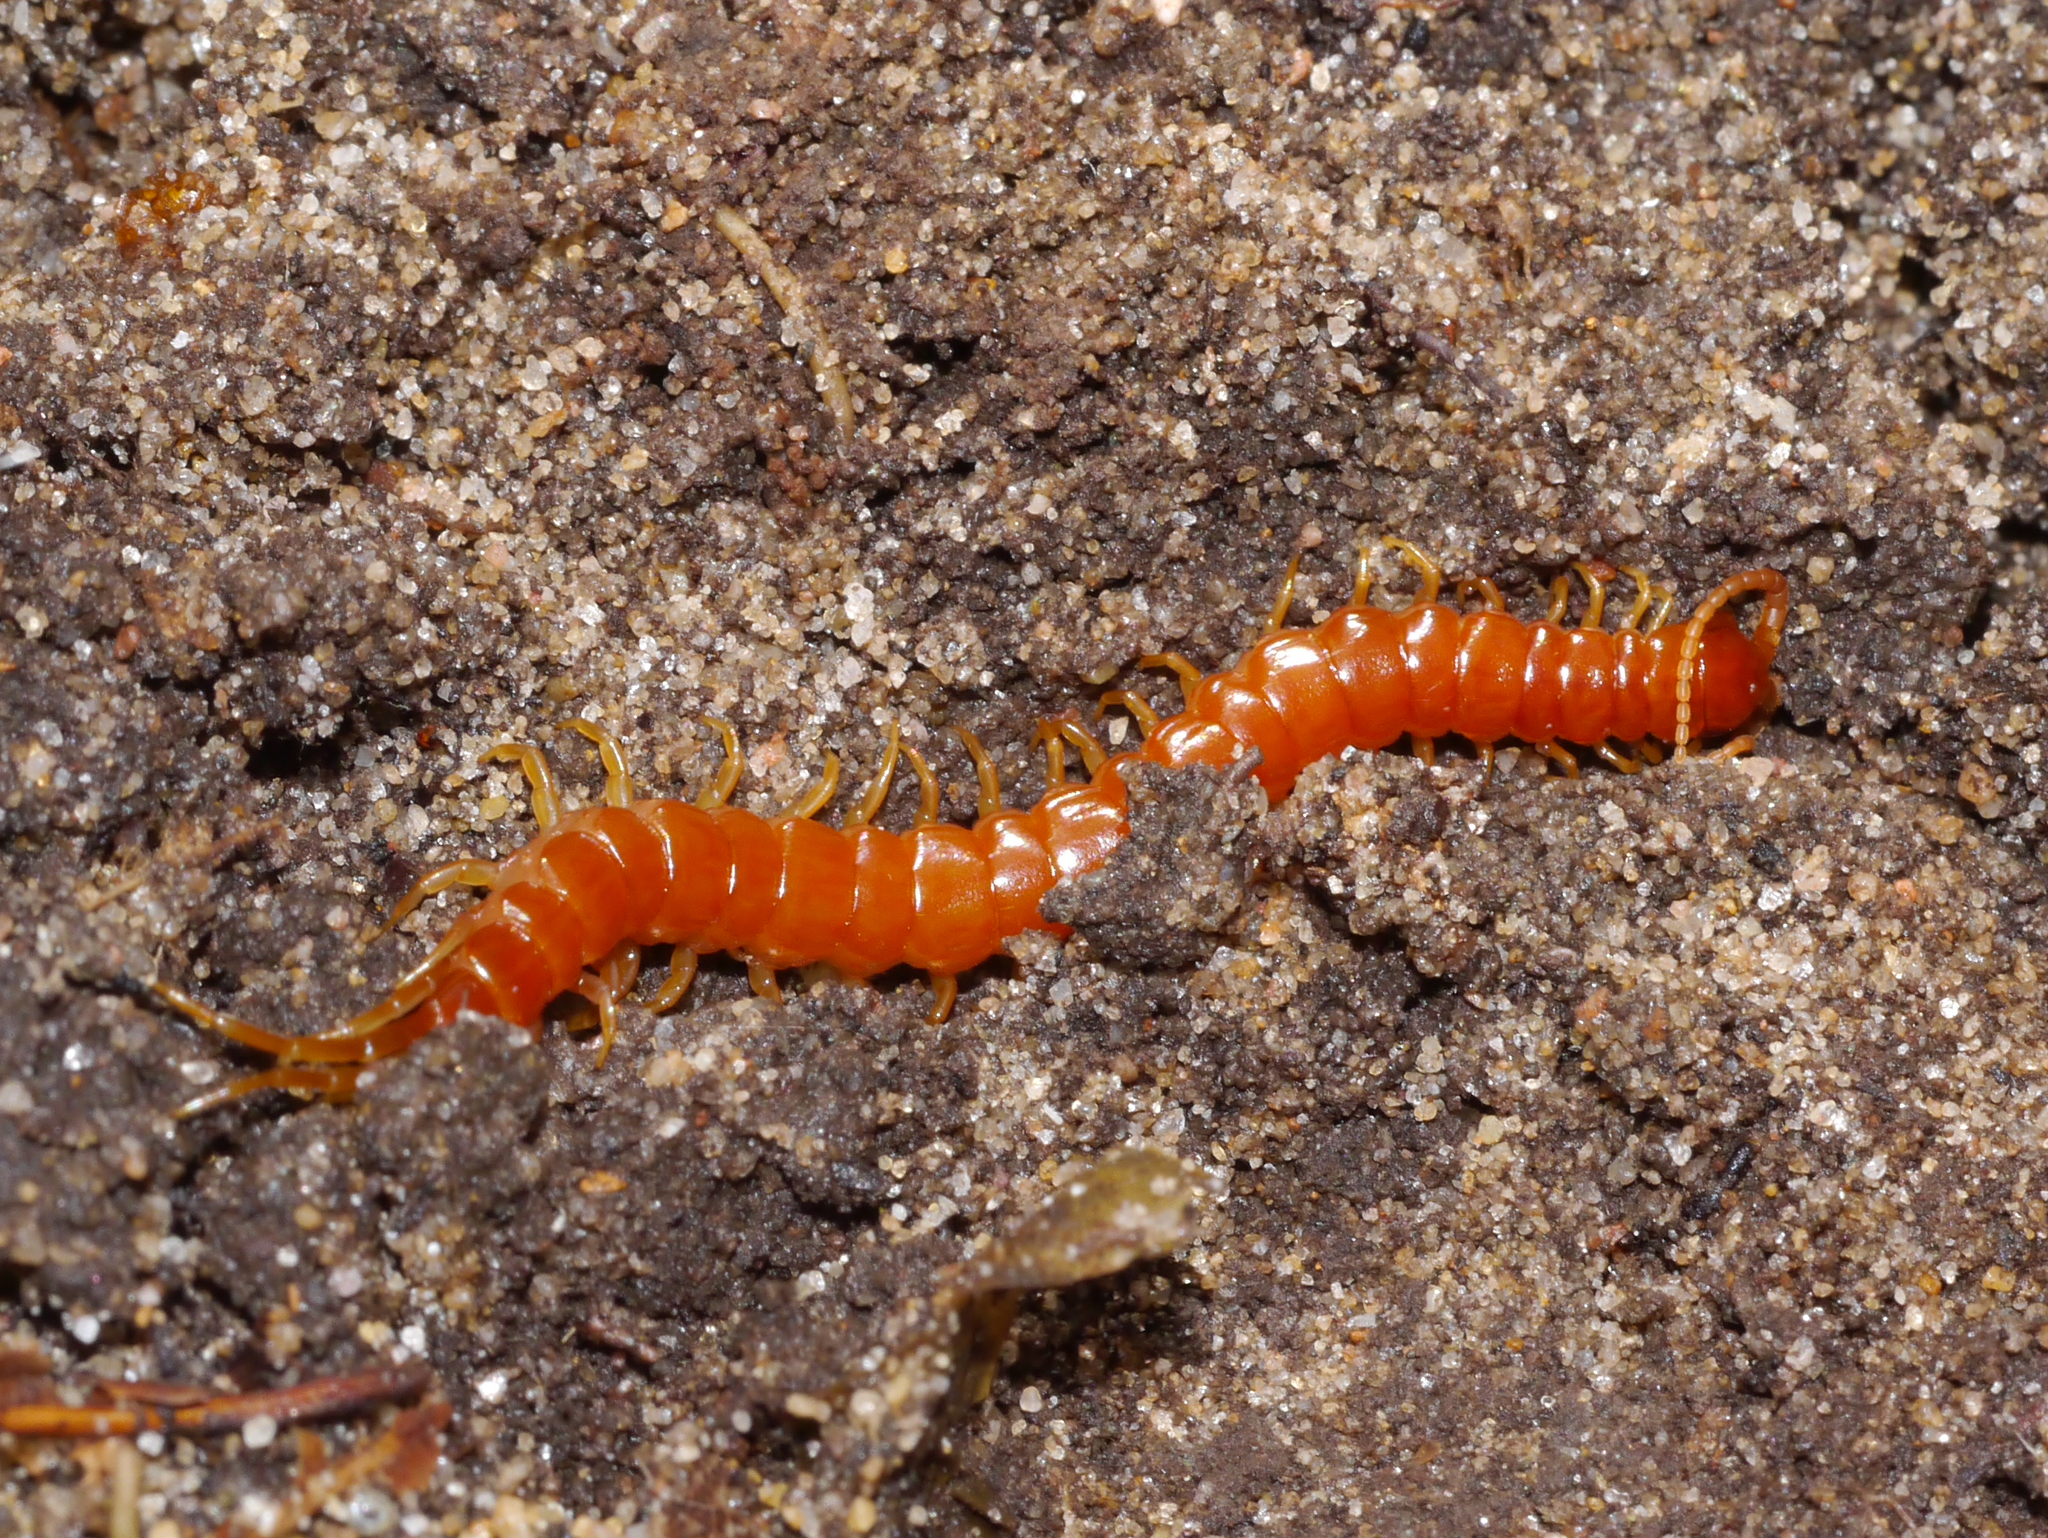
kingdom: Animalia
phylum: Arthropoda
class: Chilopoda
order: Scolopendromorpha
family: Scolopocryptopidae
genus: Scolopocryptops
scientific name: Scolopocryptops sexspinosus
